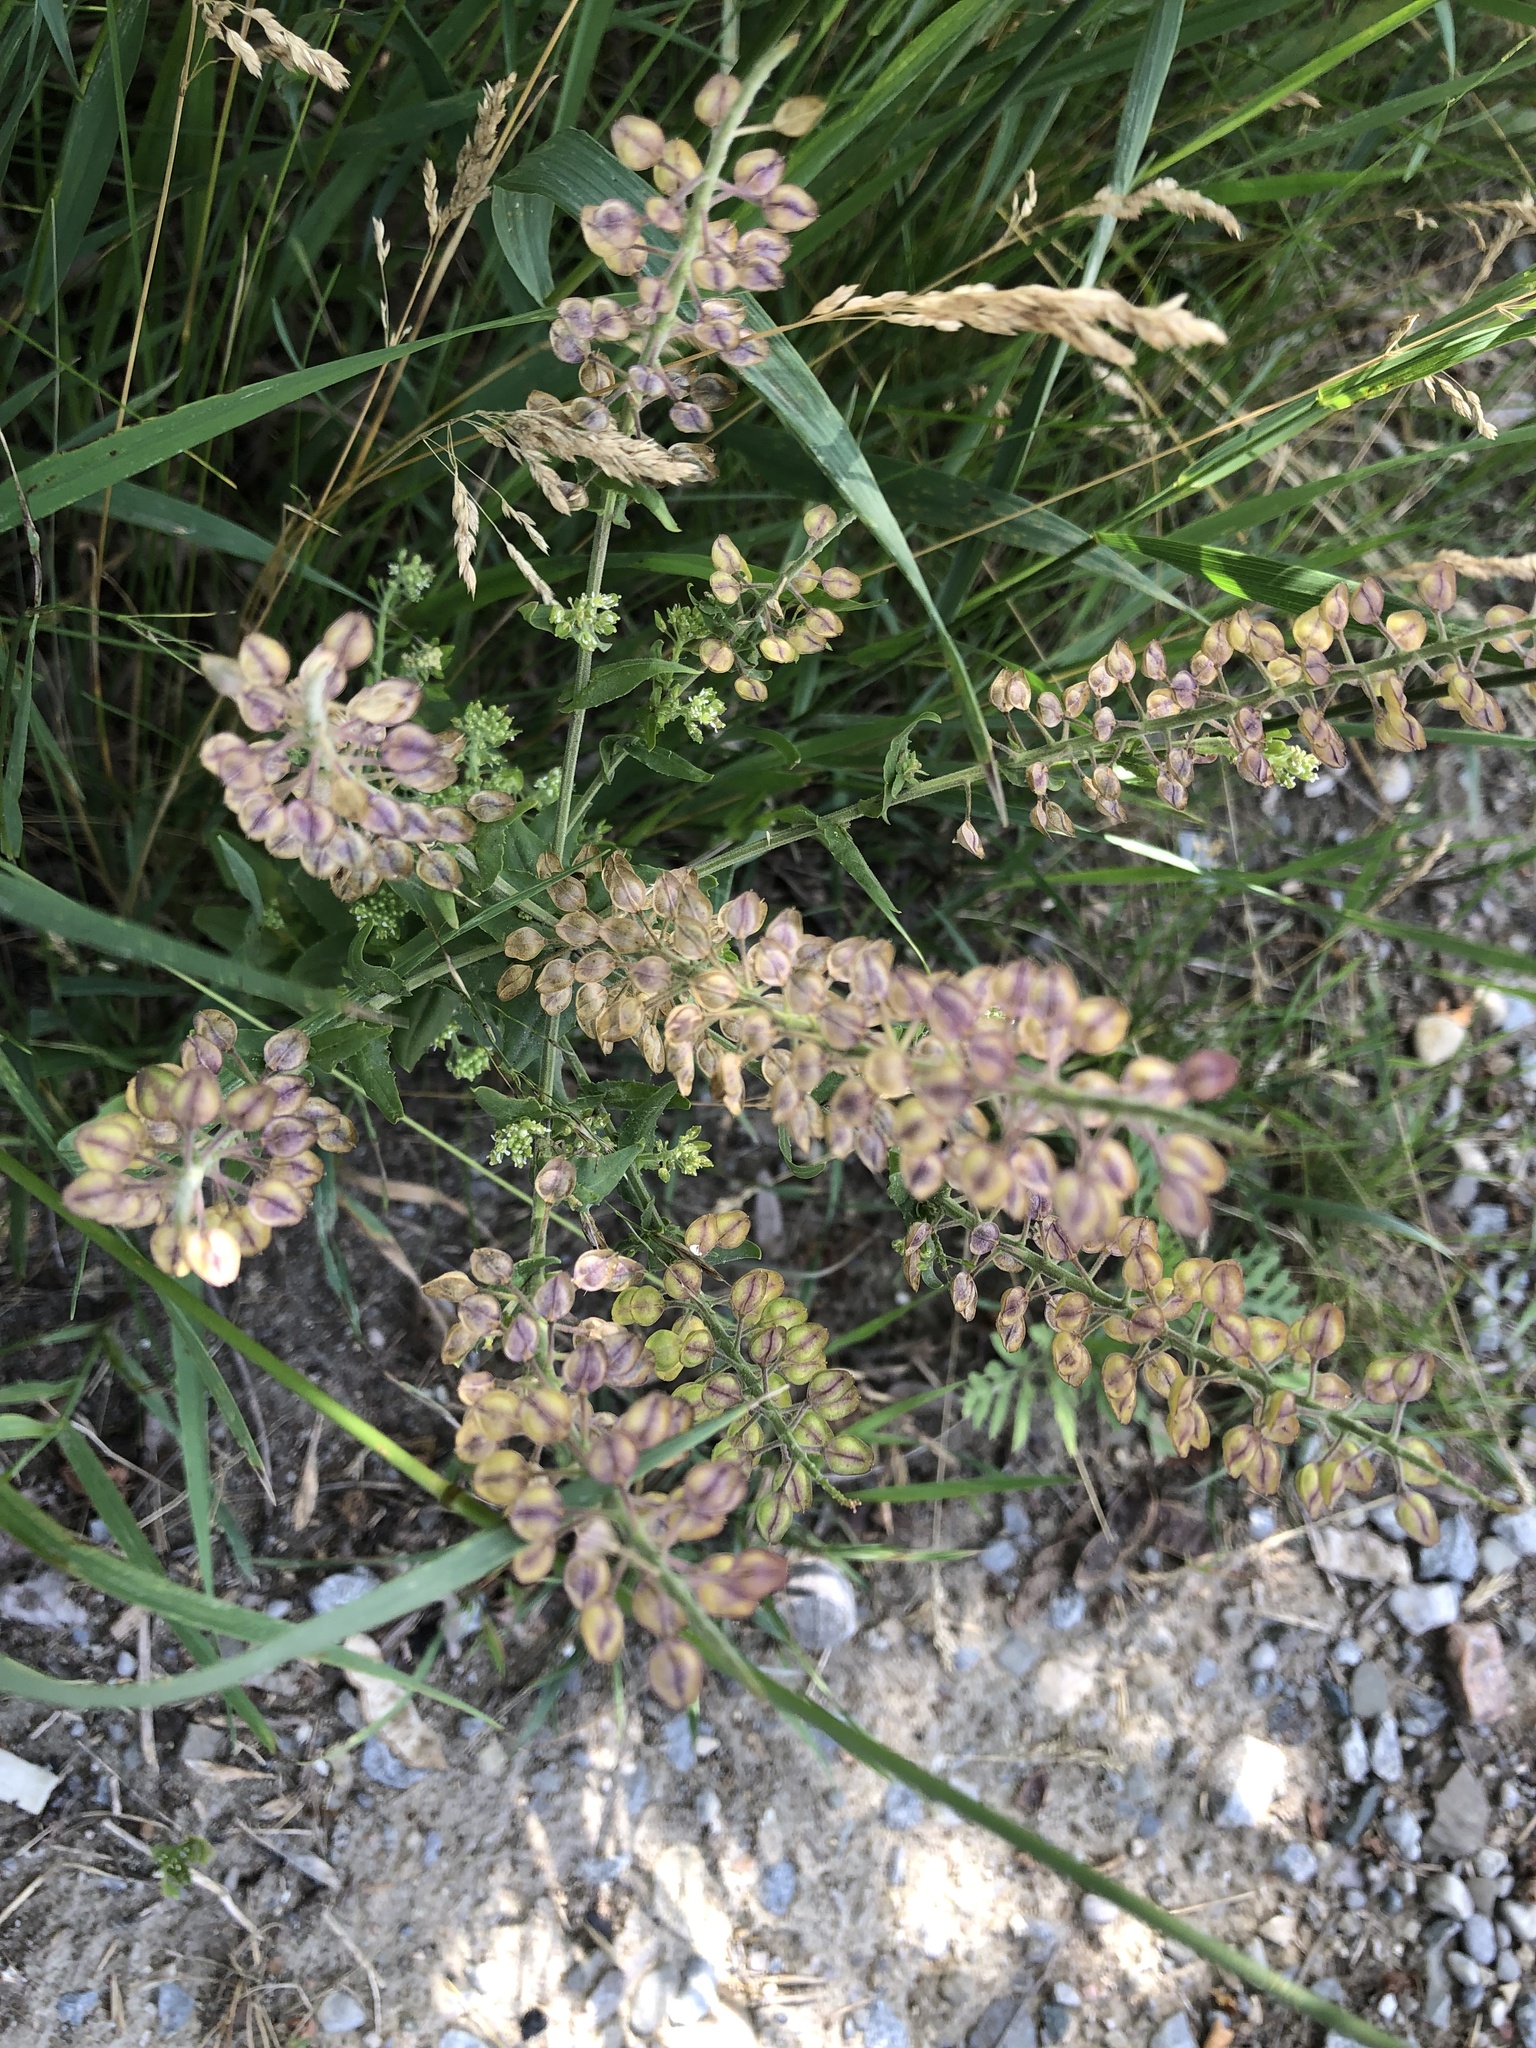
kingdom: Plantae
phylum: Tracheophyta
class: Magnoliopsida
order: Brassicales
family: Brassicaceae
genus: Lepidium
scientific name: Lepidium campestre
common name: Field pepperwort
